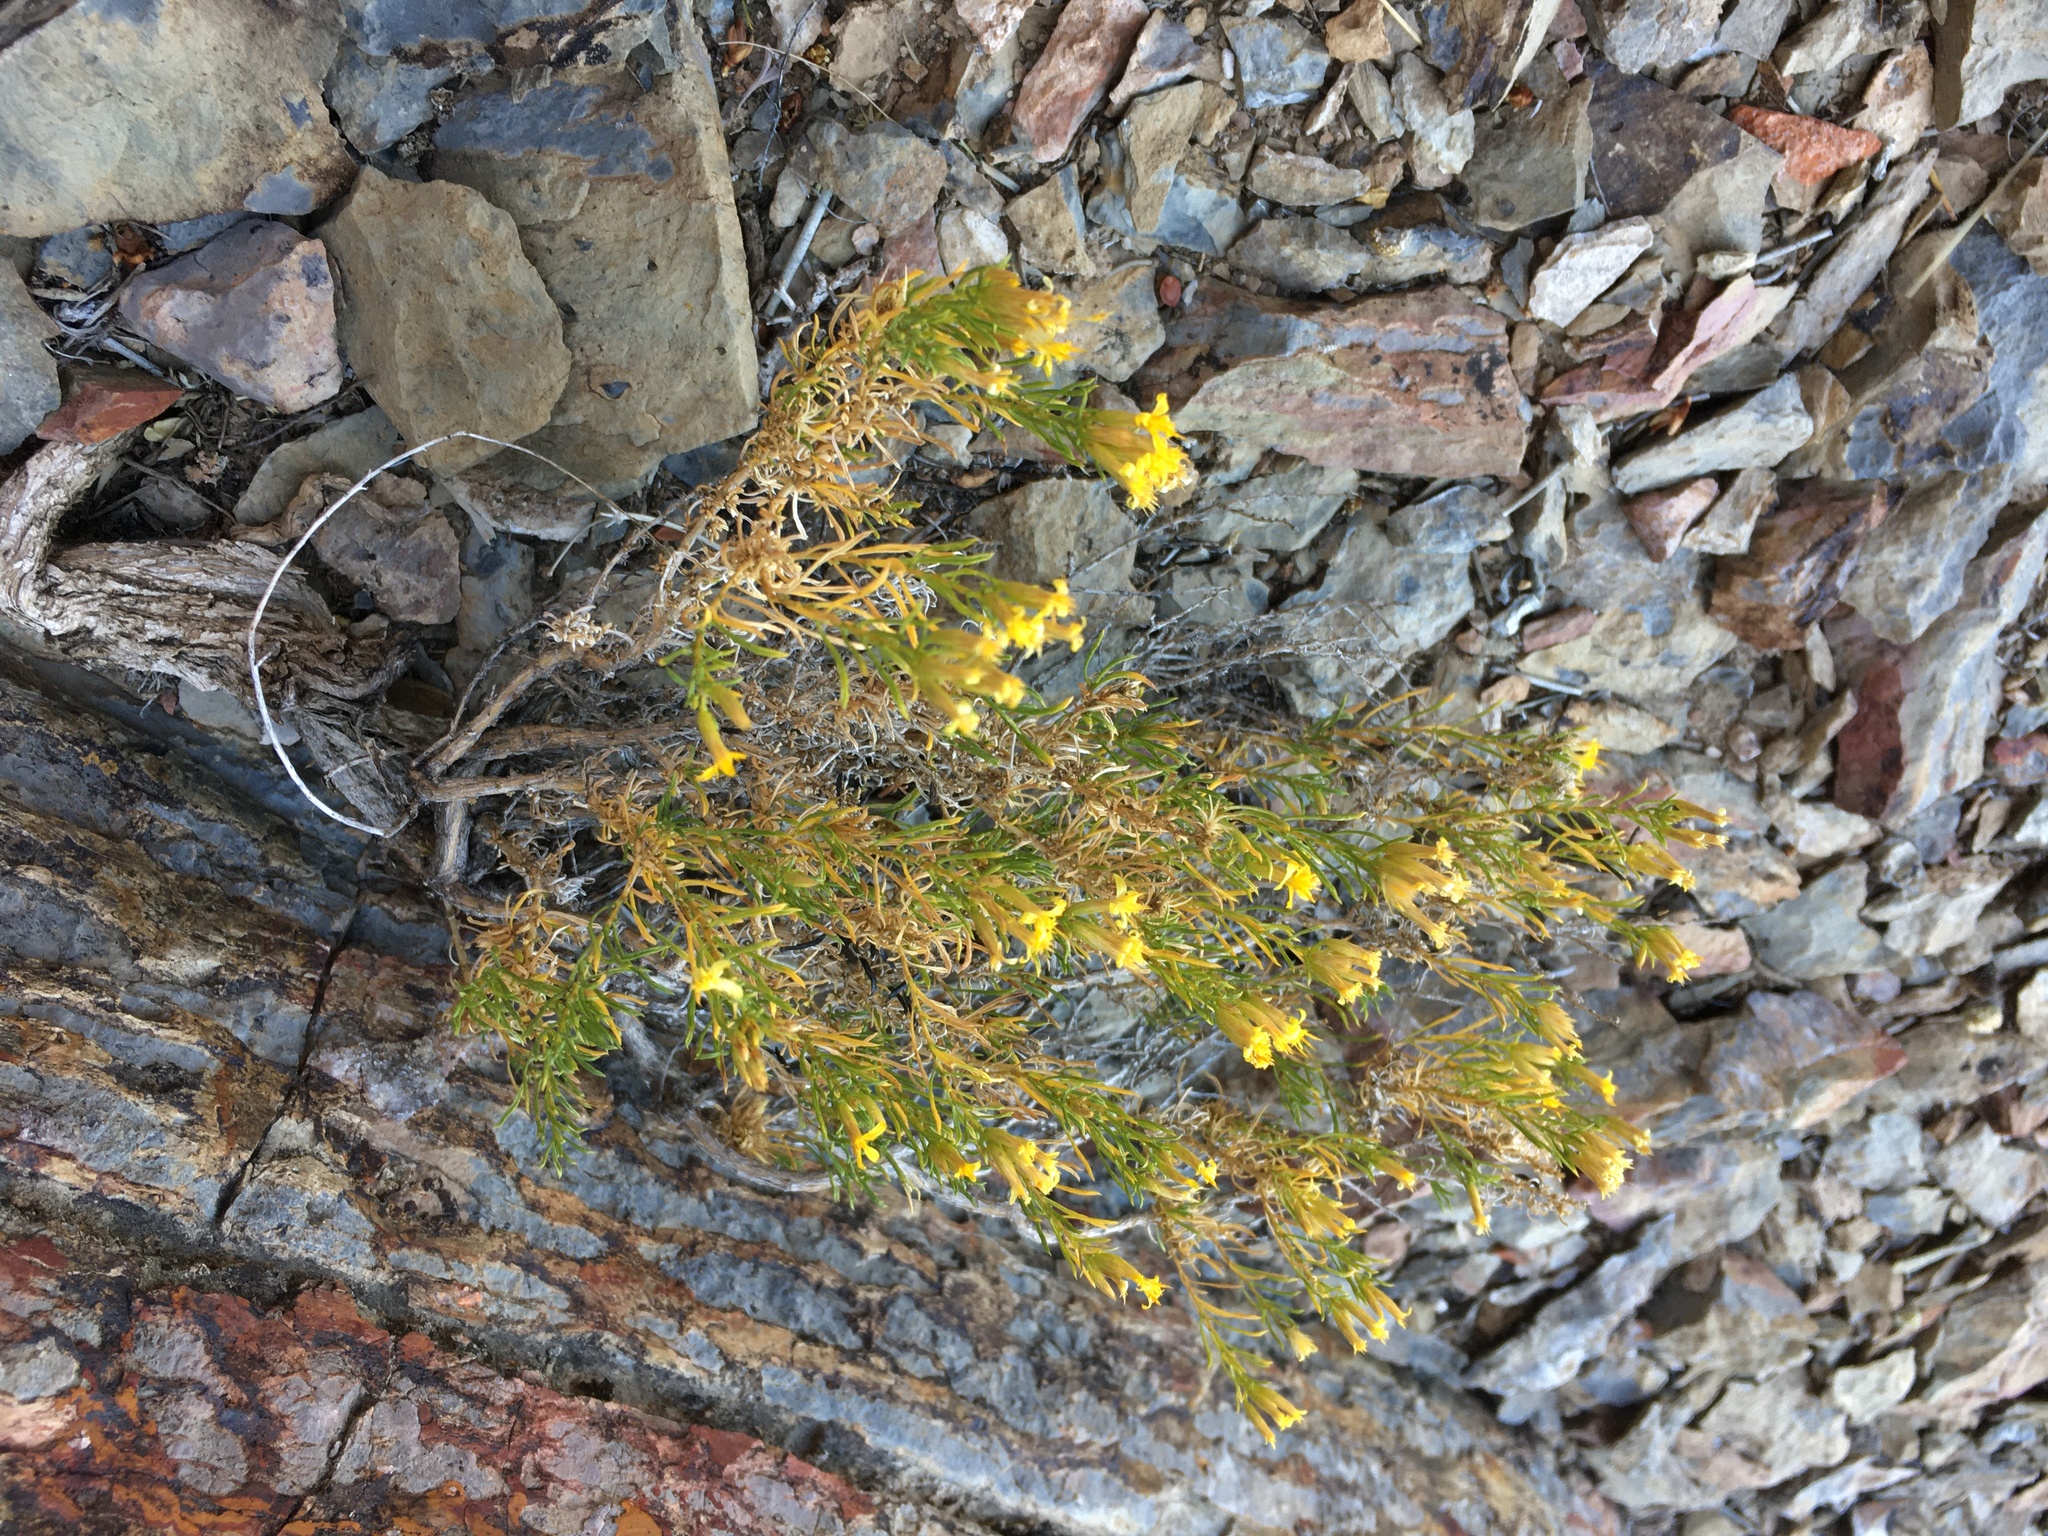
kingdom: Plantae
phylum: Tracheophyta
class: Magnoliopsida
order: Asterales
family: Asteraceae
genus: Ericameria
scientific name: Ericameria nana
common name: Dwarf goldenbush
